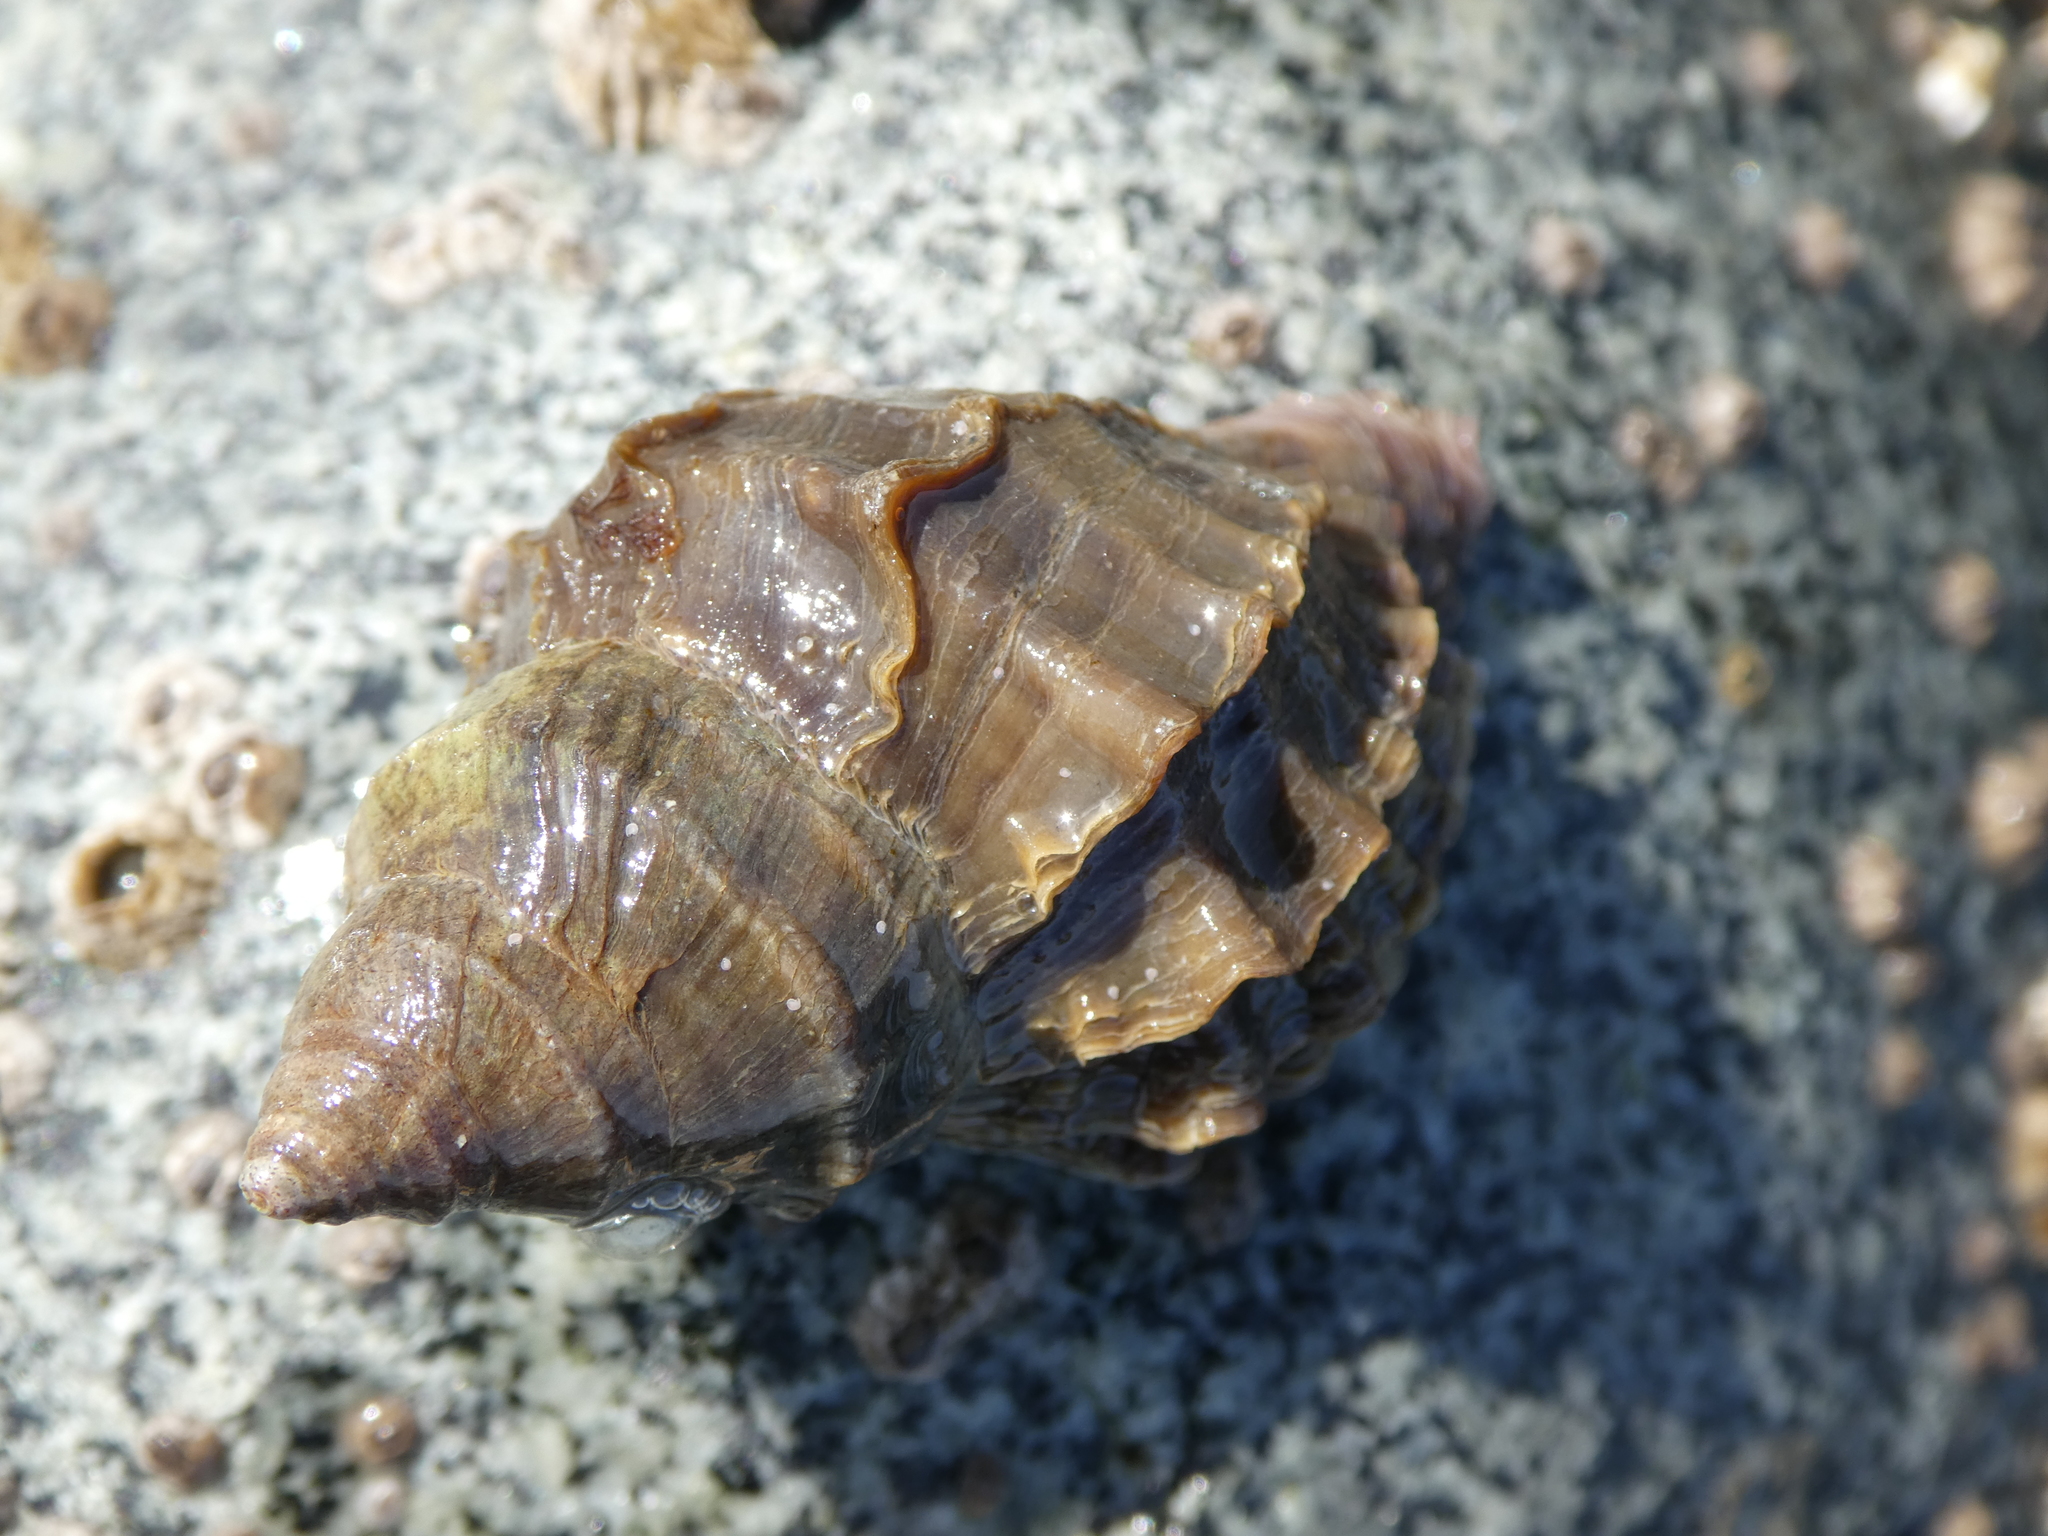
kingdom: Animalia
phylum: Mollusca
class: Gastropoda
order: Neogastropoda
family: Muricidae
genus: Nucella
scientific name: Nucella lamellosa
